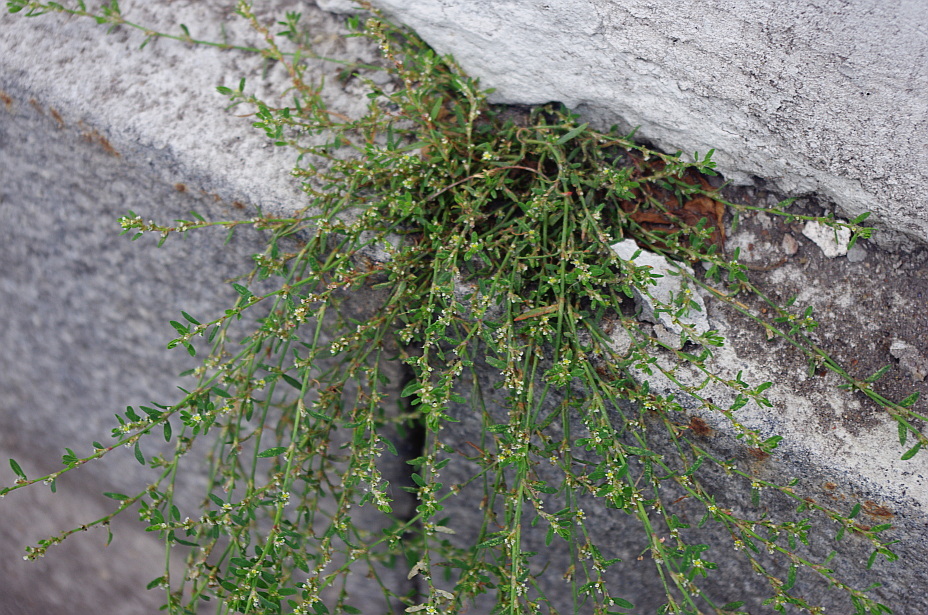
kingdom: Plantae
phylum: Tracheophyta
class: Magnoliopsida
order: Caryophyllales
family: Polygonaceae
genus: Polygonum
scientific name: Polygonum
